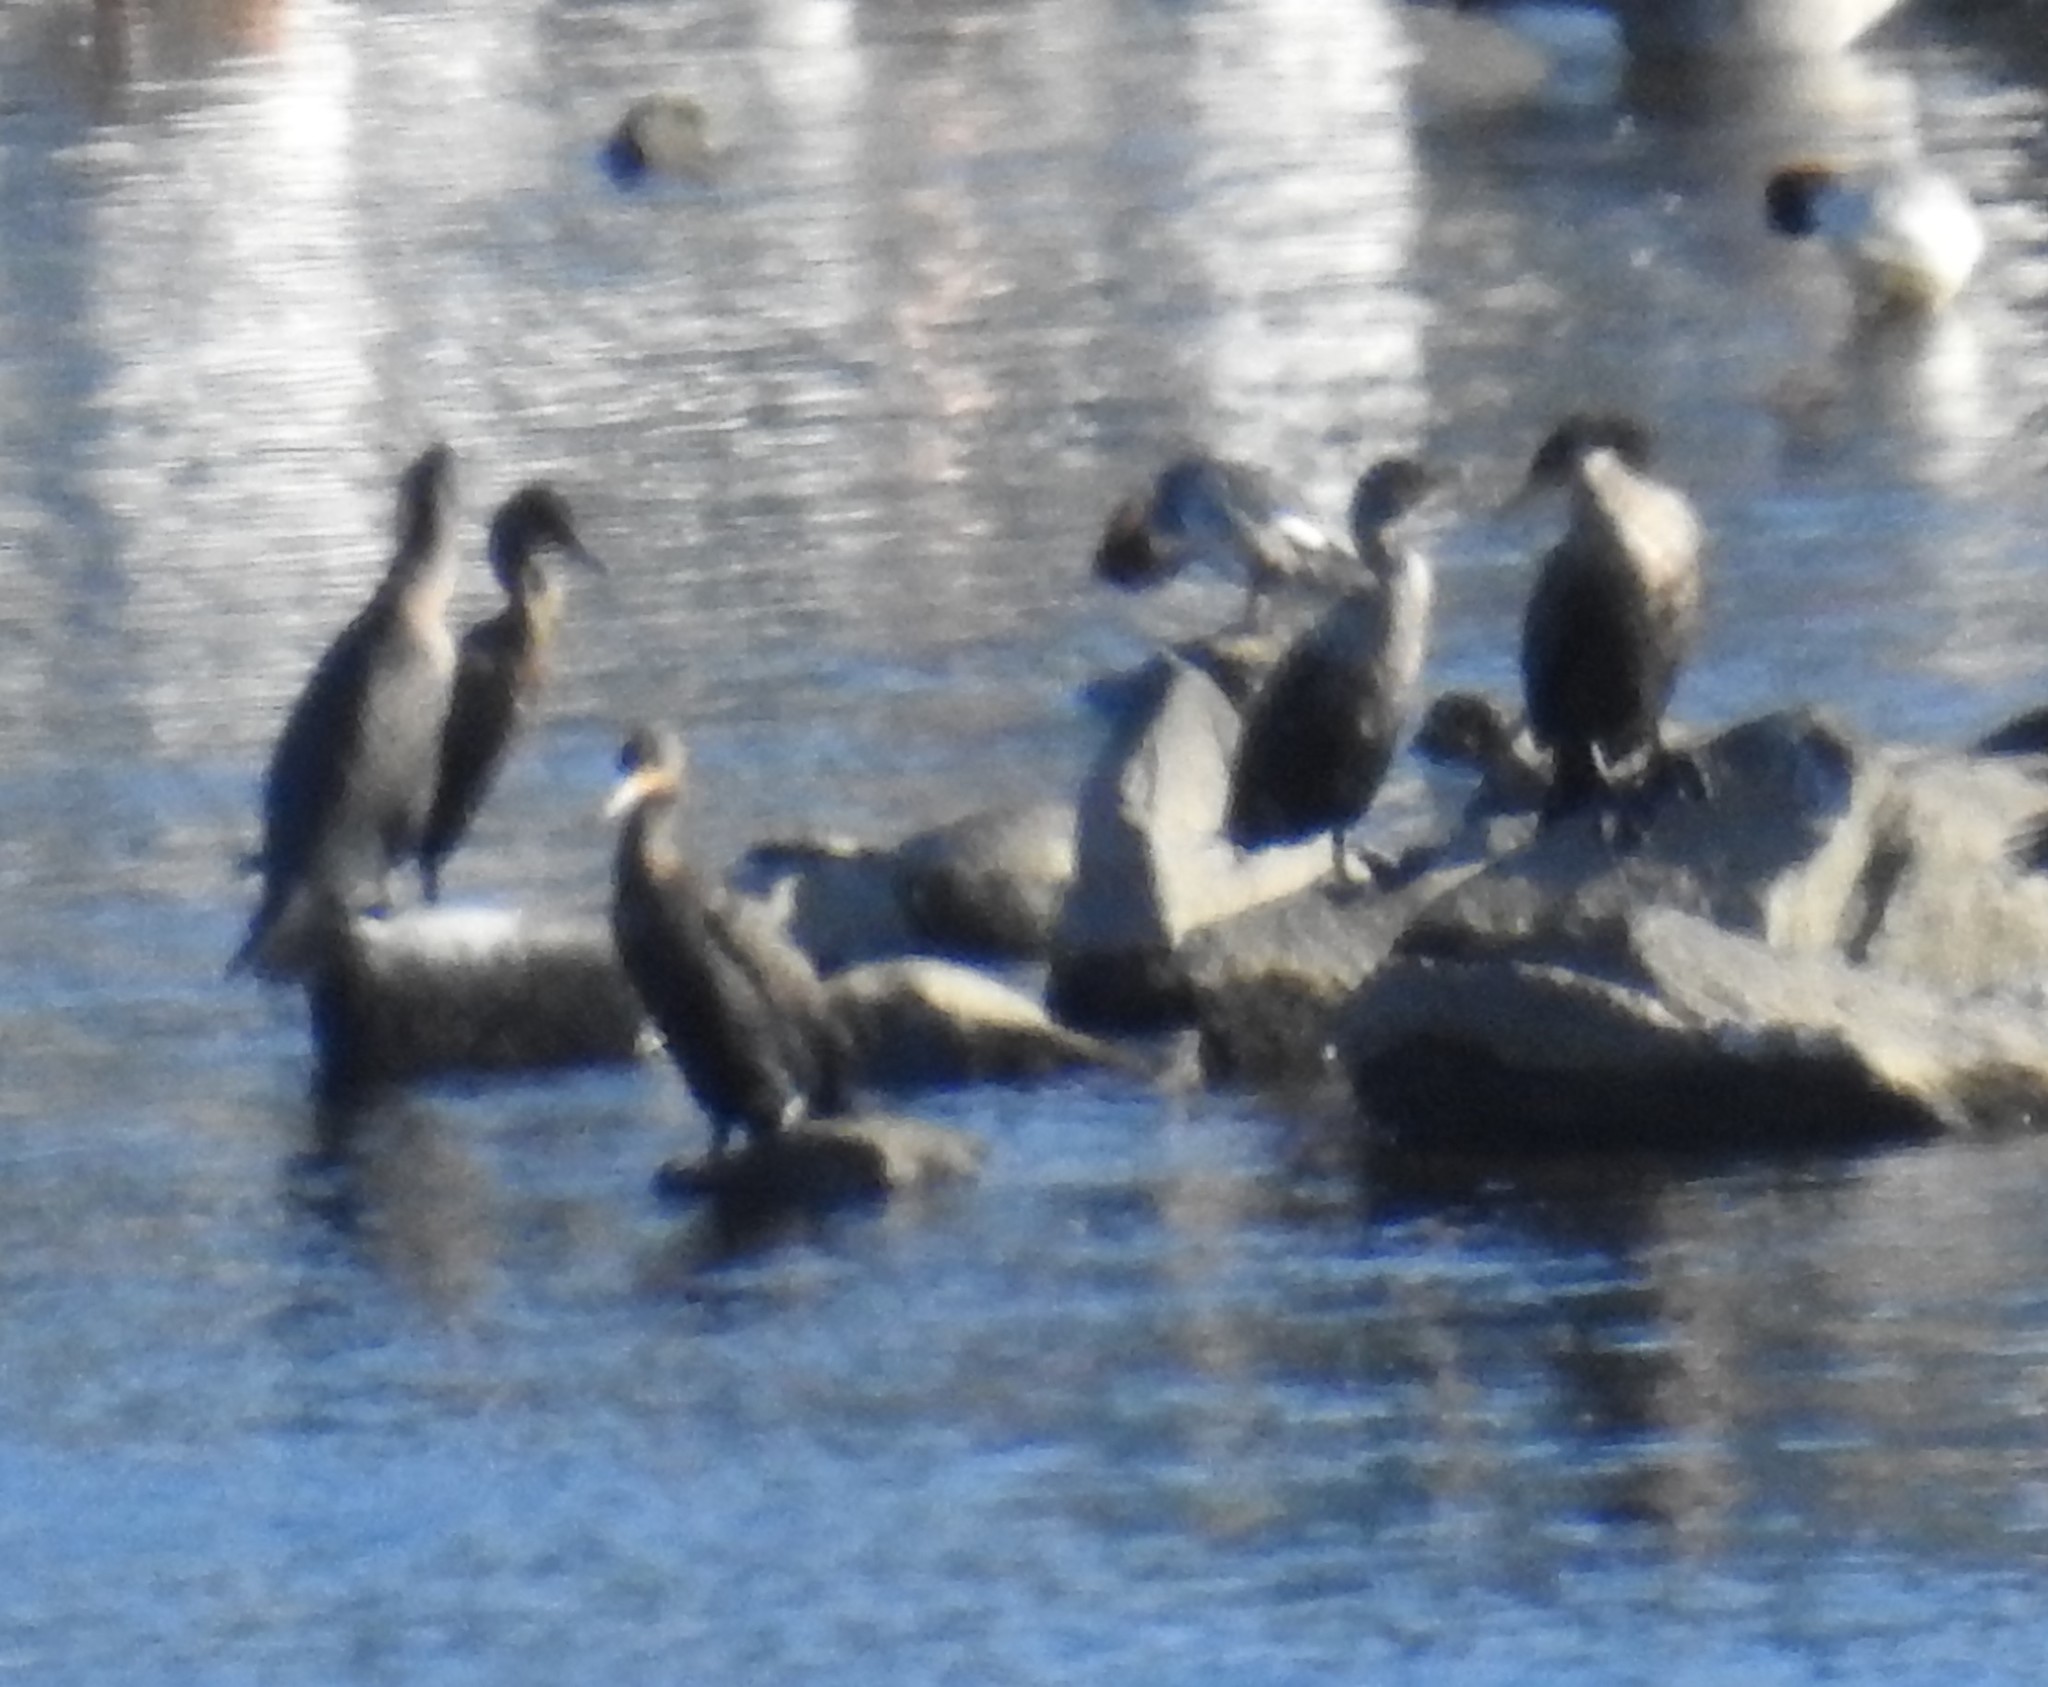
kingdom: Animalia
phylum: Chordata
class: Aves
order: Suliformes
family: Phalacrocoracidae
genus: Phalacrocorax
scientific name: Phalacrocorax auritus
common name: Double-crested cormorant
